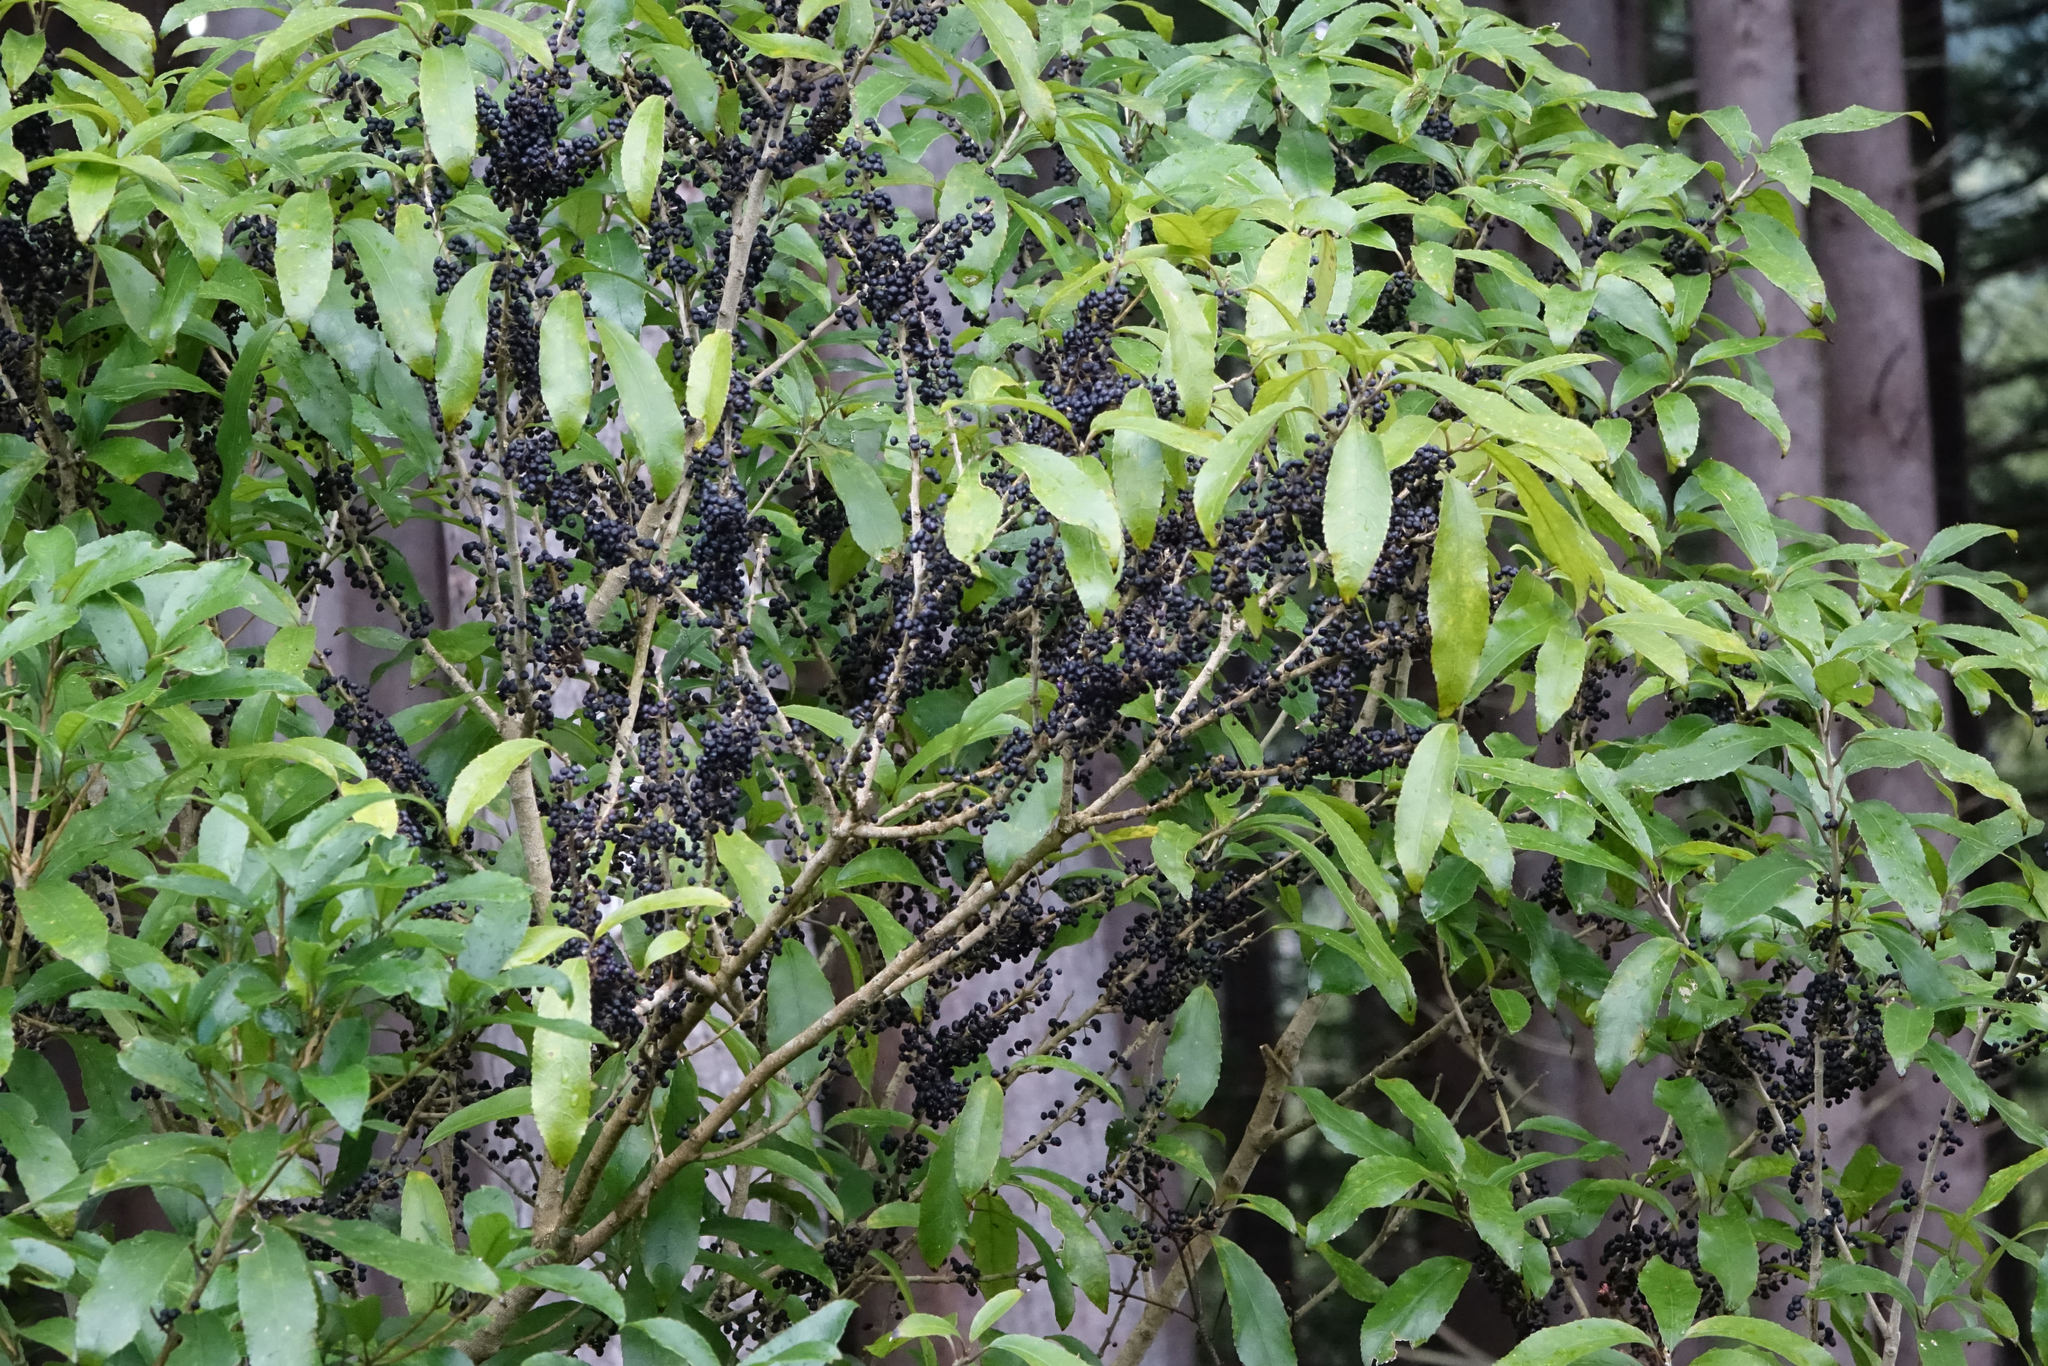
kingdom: Plantae
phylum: Tracheophyta
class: Magnoliopsida
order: Malpighiales
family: Violaceae
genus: Melicytus
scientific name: Melicytus ramiflorus
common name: Mahoe
